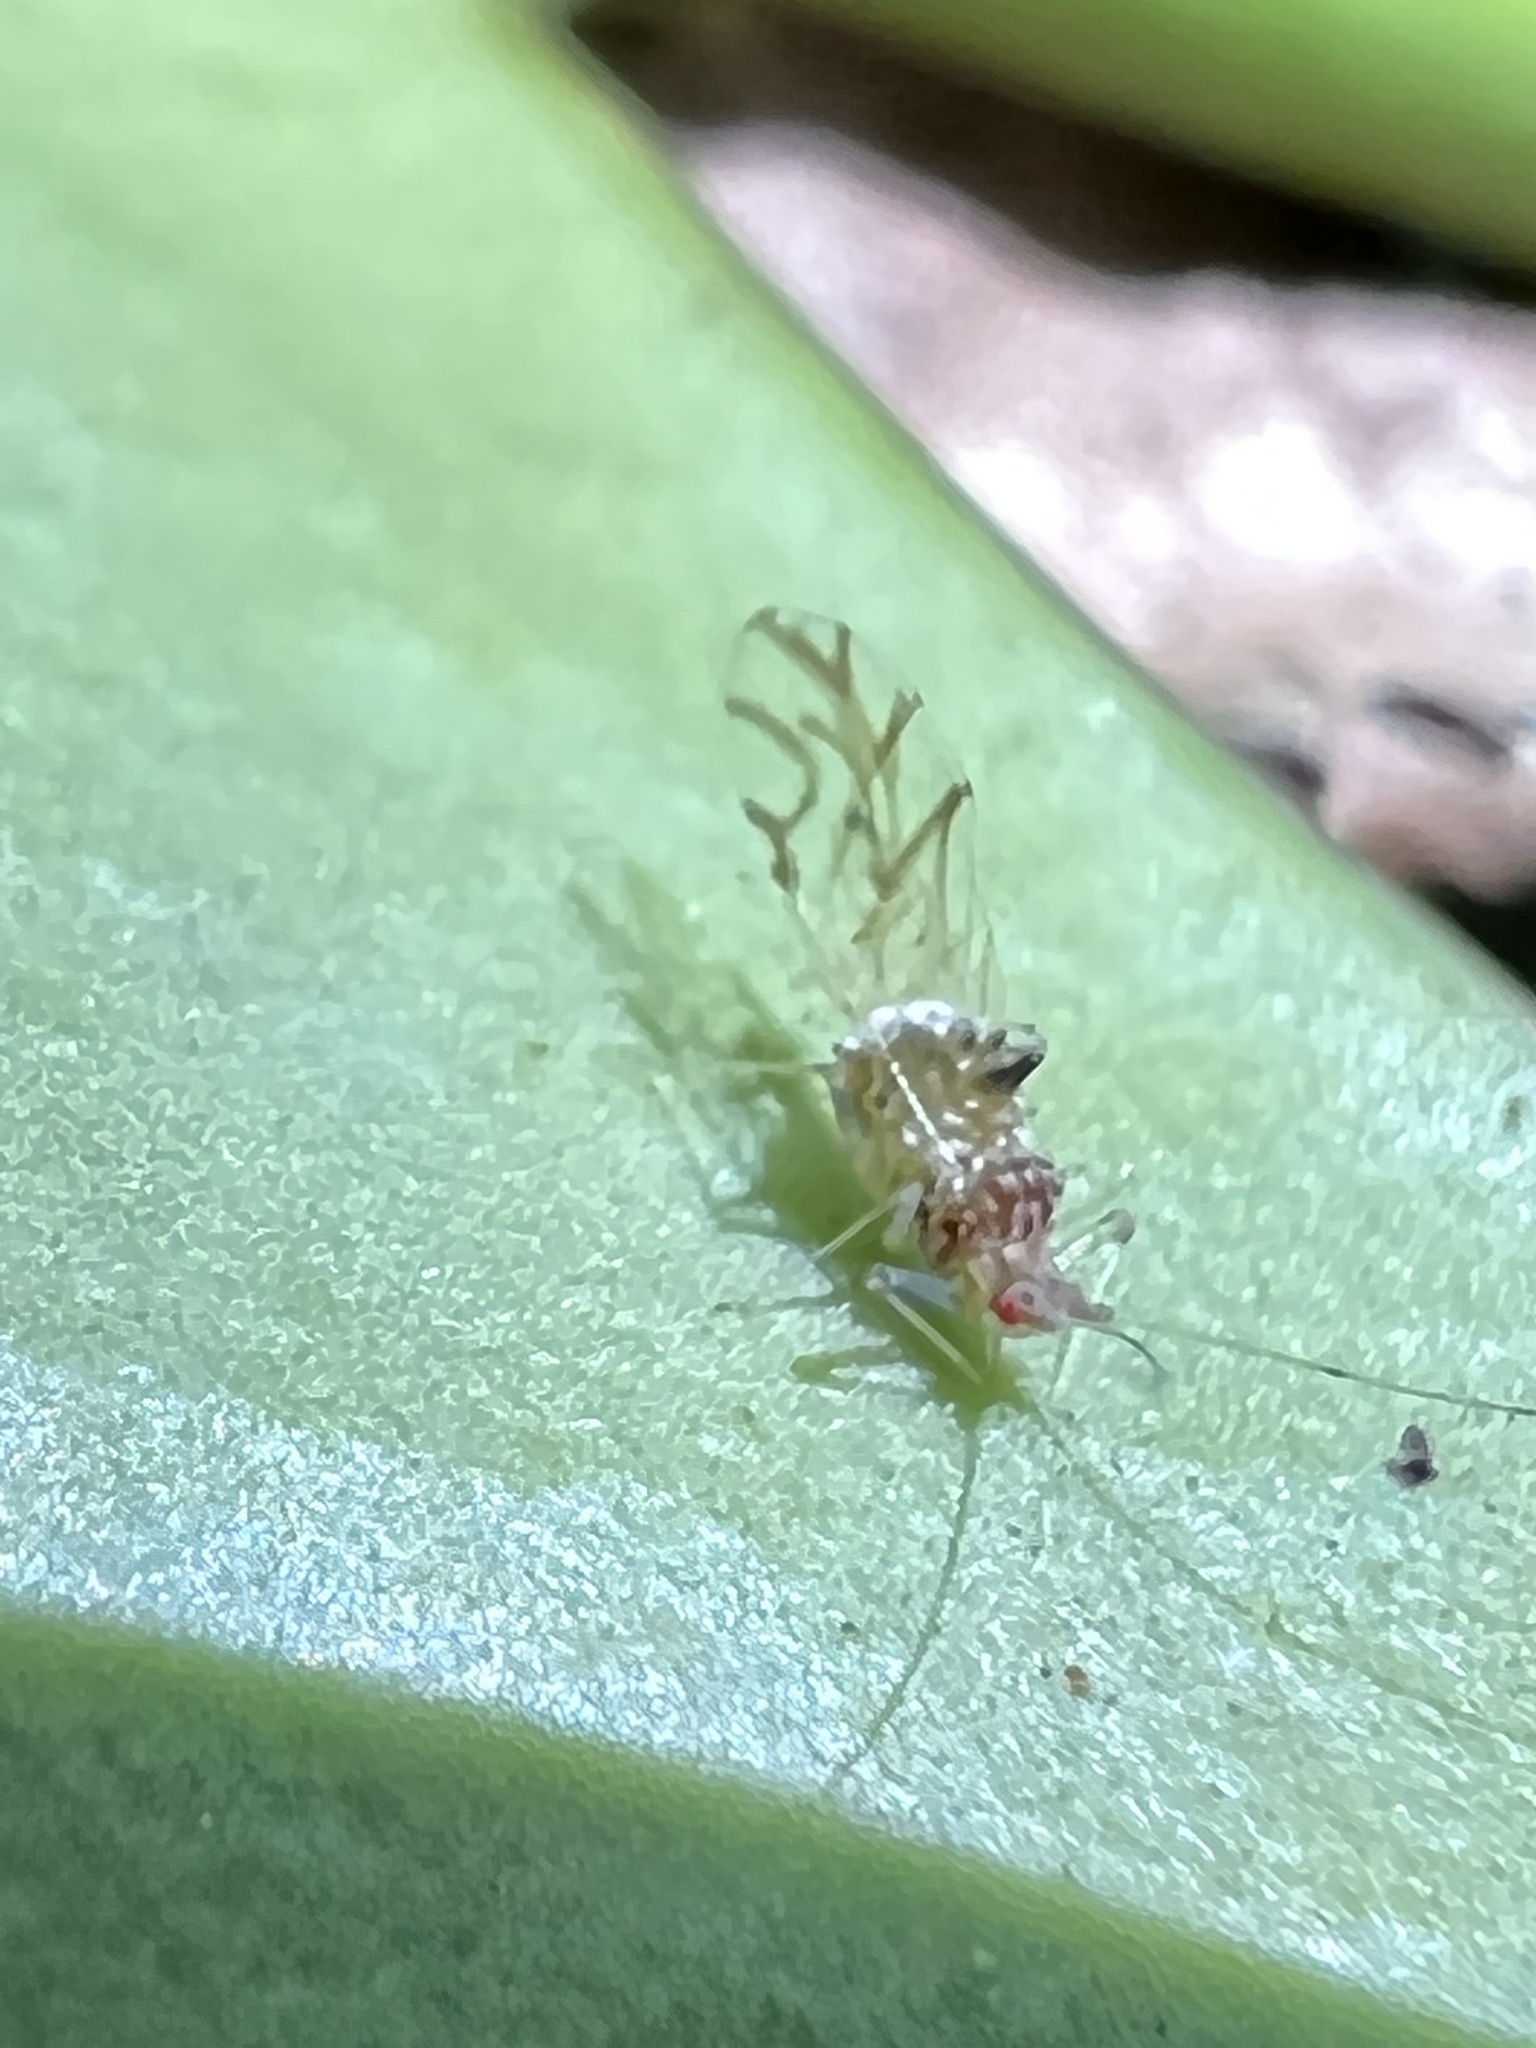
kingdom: Animalia
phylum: Arthropoda
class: Insecta
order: Hemiptera
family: Aphididae
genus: Drepanaphis
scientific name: Drepanaphis acerifoliae
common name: Painted maple aphid
